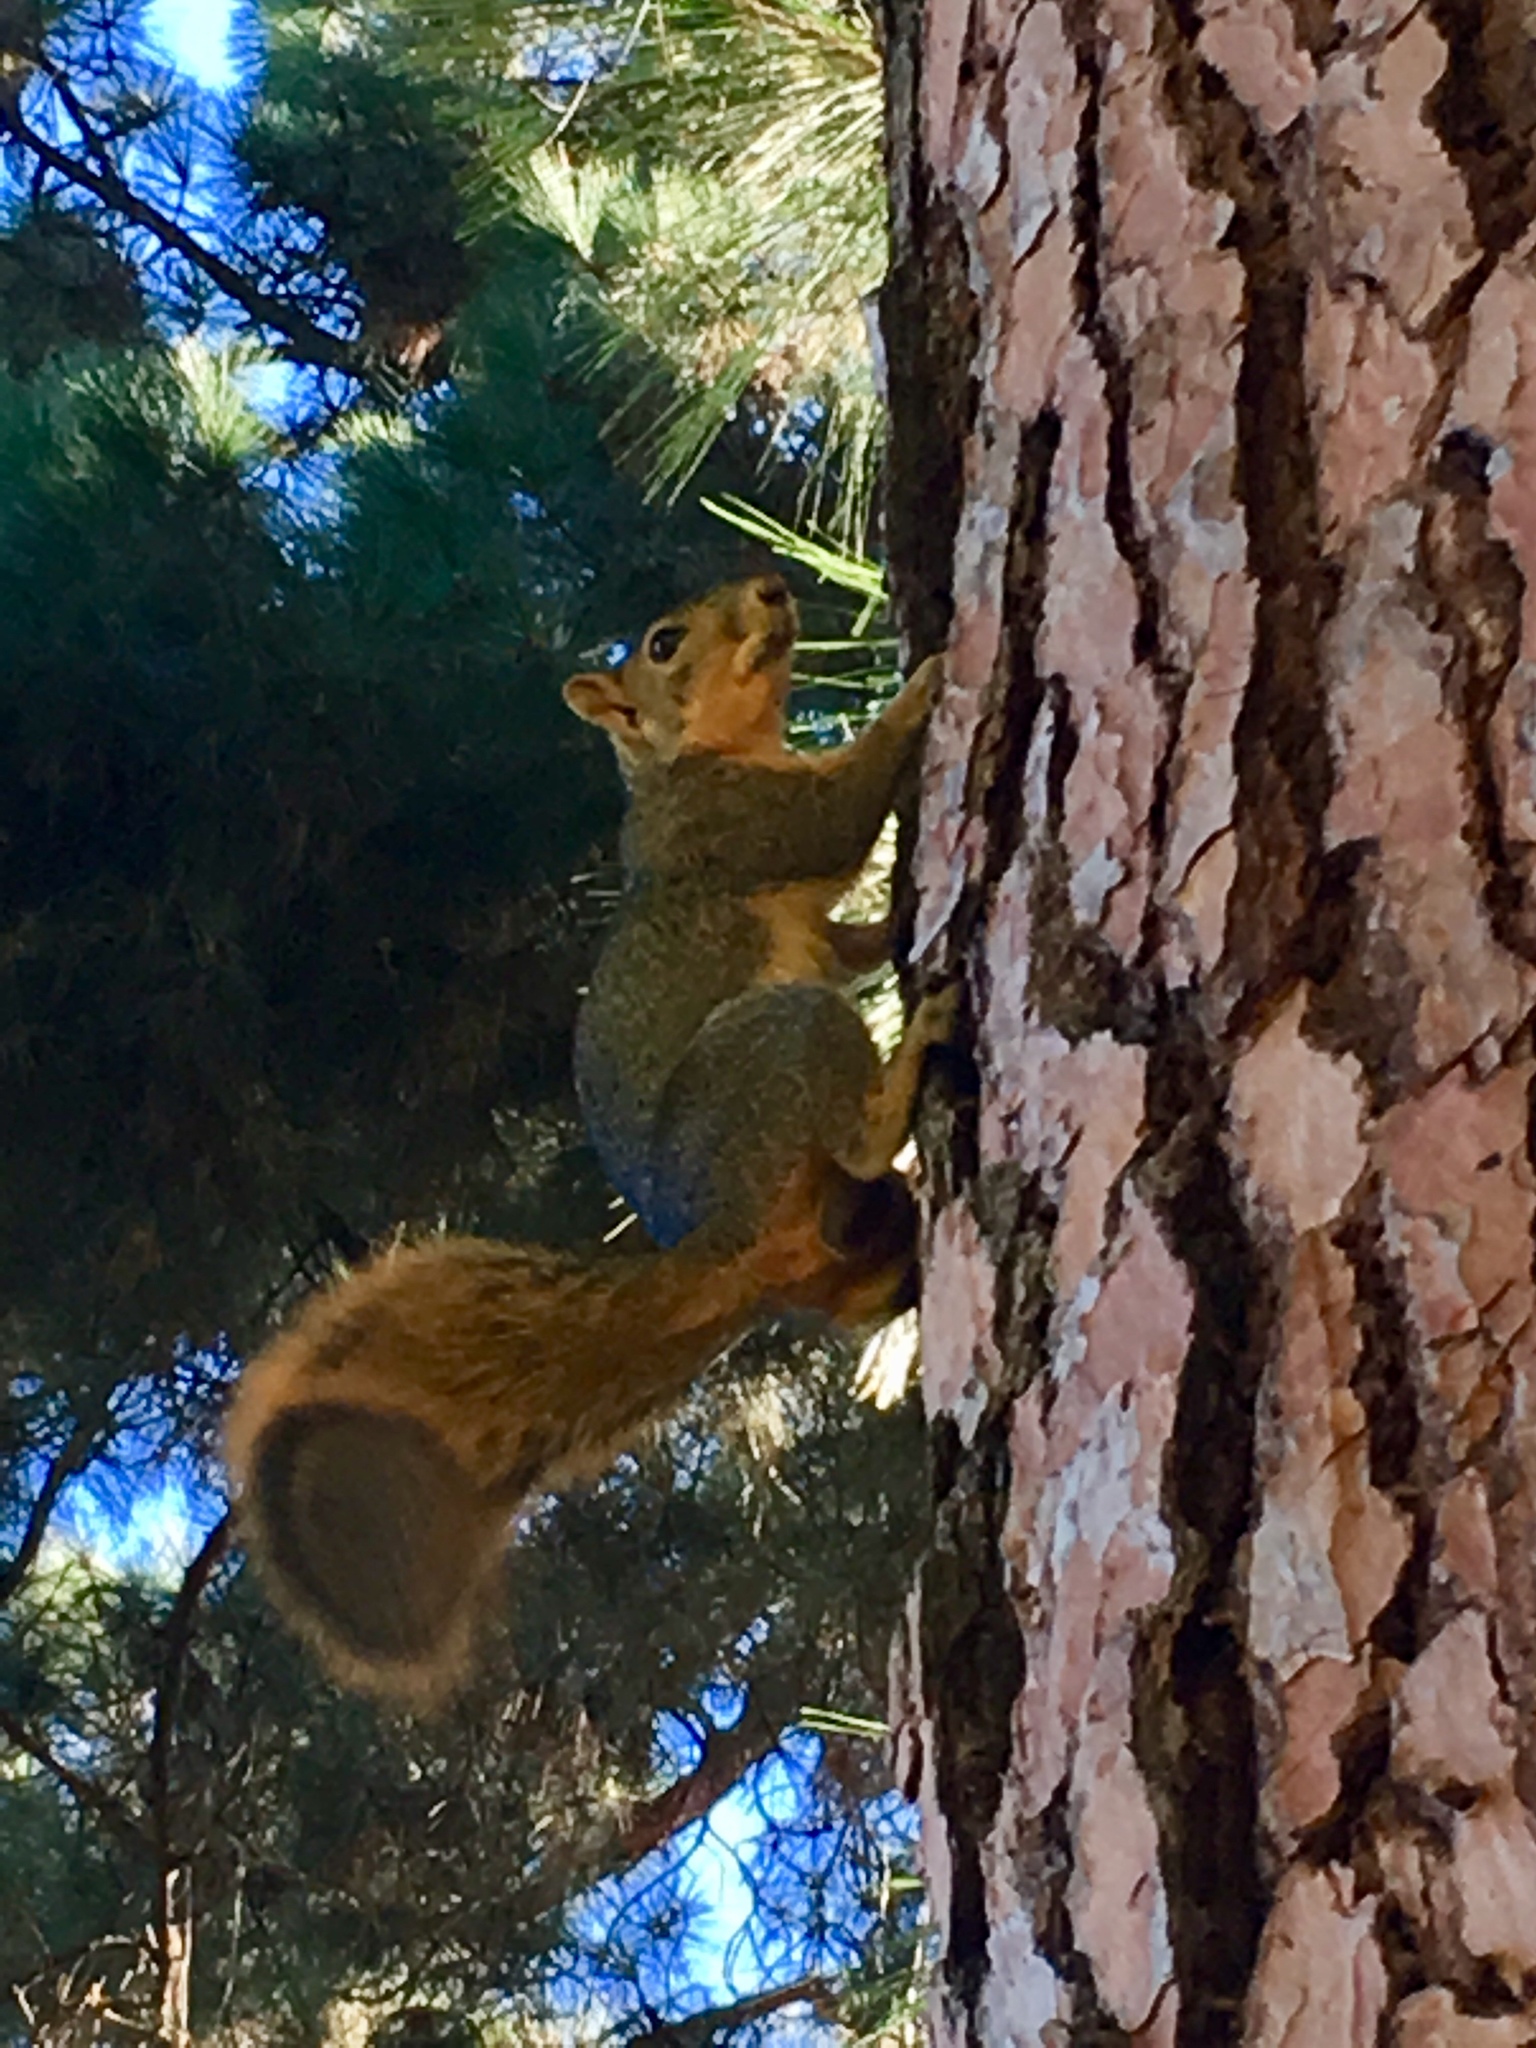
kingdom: Animalia
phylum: Chordata
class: Mammalia
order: Rodentia
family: Sciuridae
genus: Sciurus
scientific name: Sciurus niger
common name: Fox squirrel
